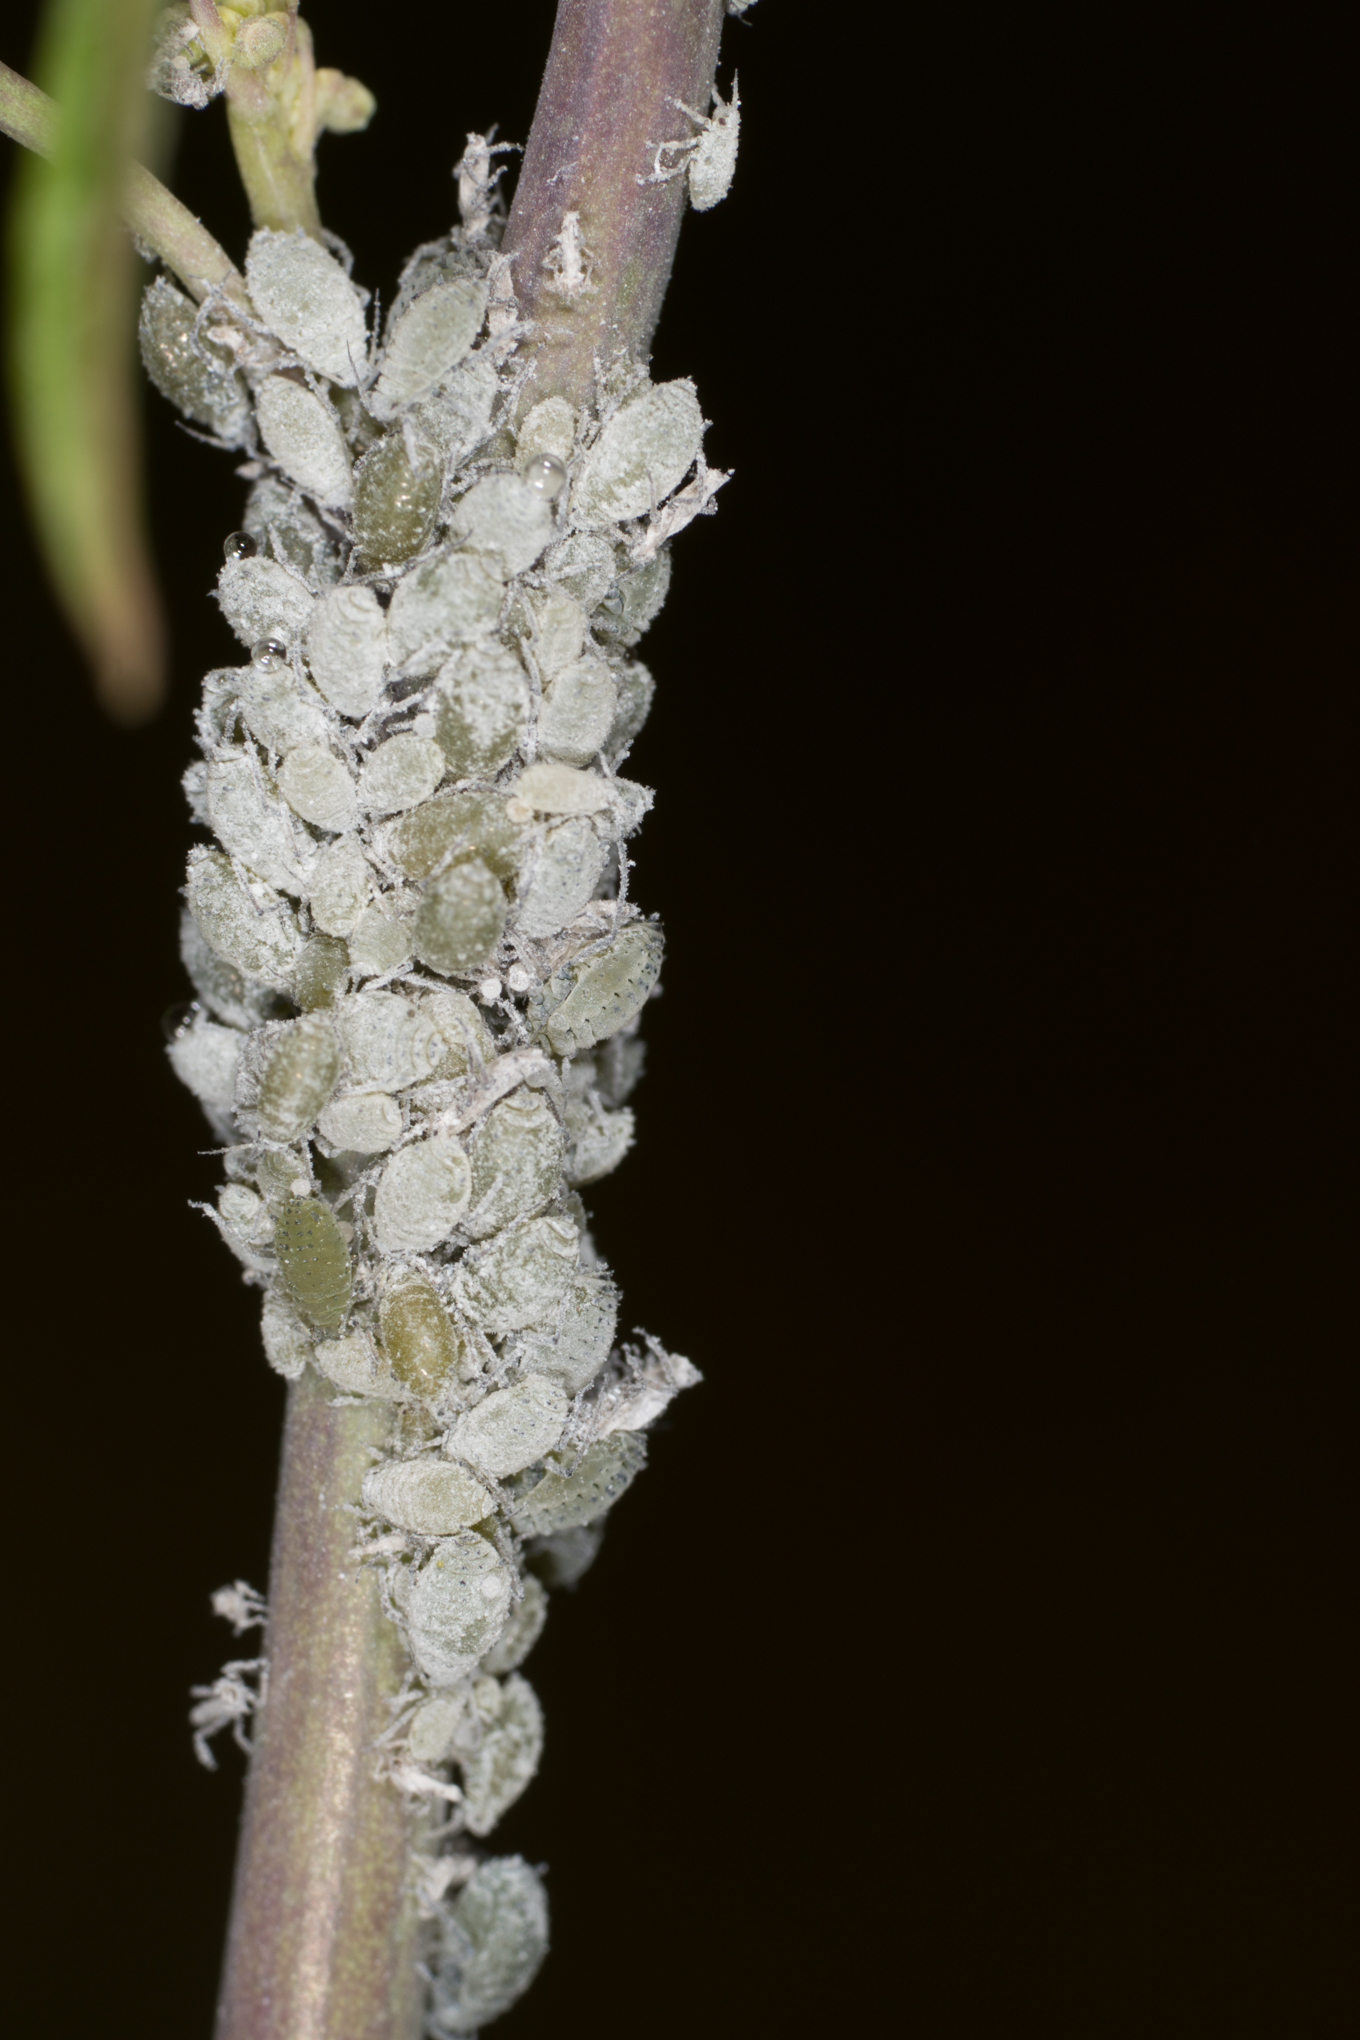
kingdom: Animalia
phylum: Arthropoda
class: Insecta
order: Hemiptera
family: Aphididae
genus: Brevicoryne
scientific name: Brevicoryne brassicae
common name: Cabbage aphid
